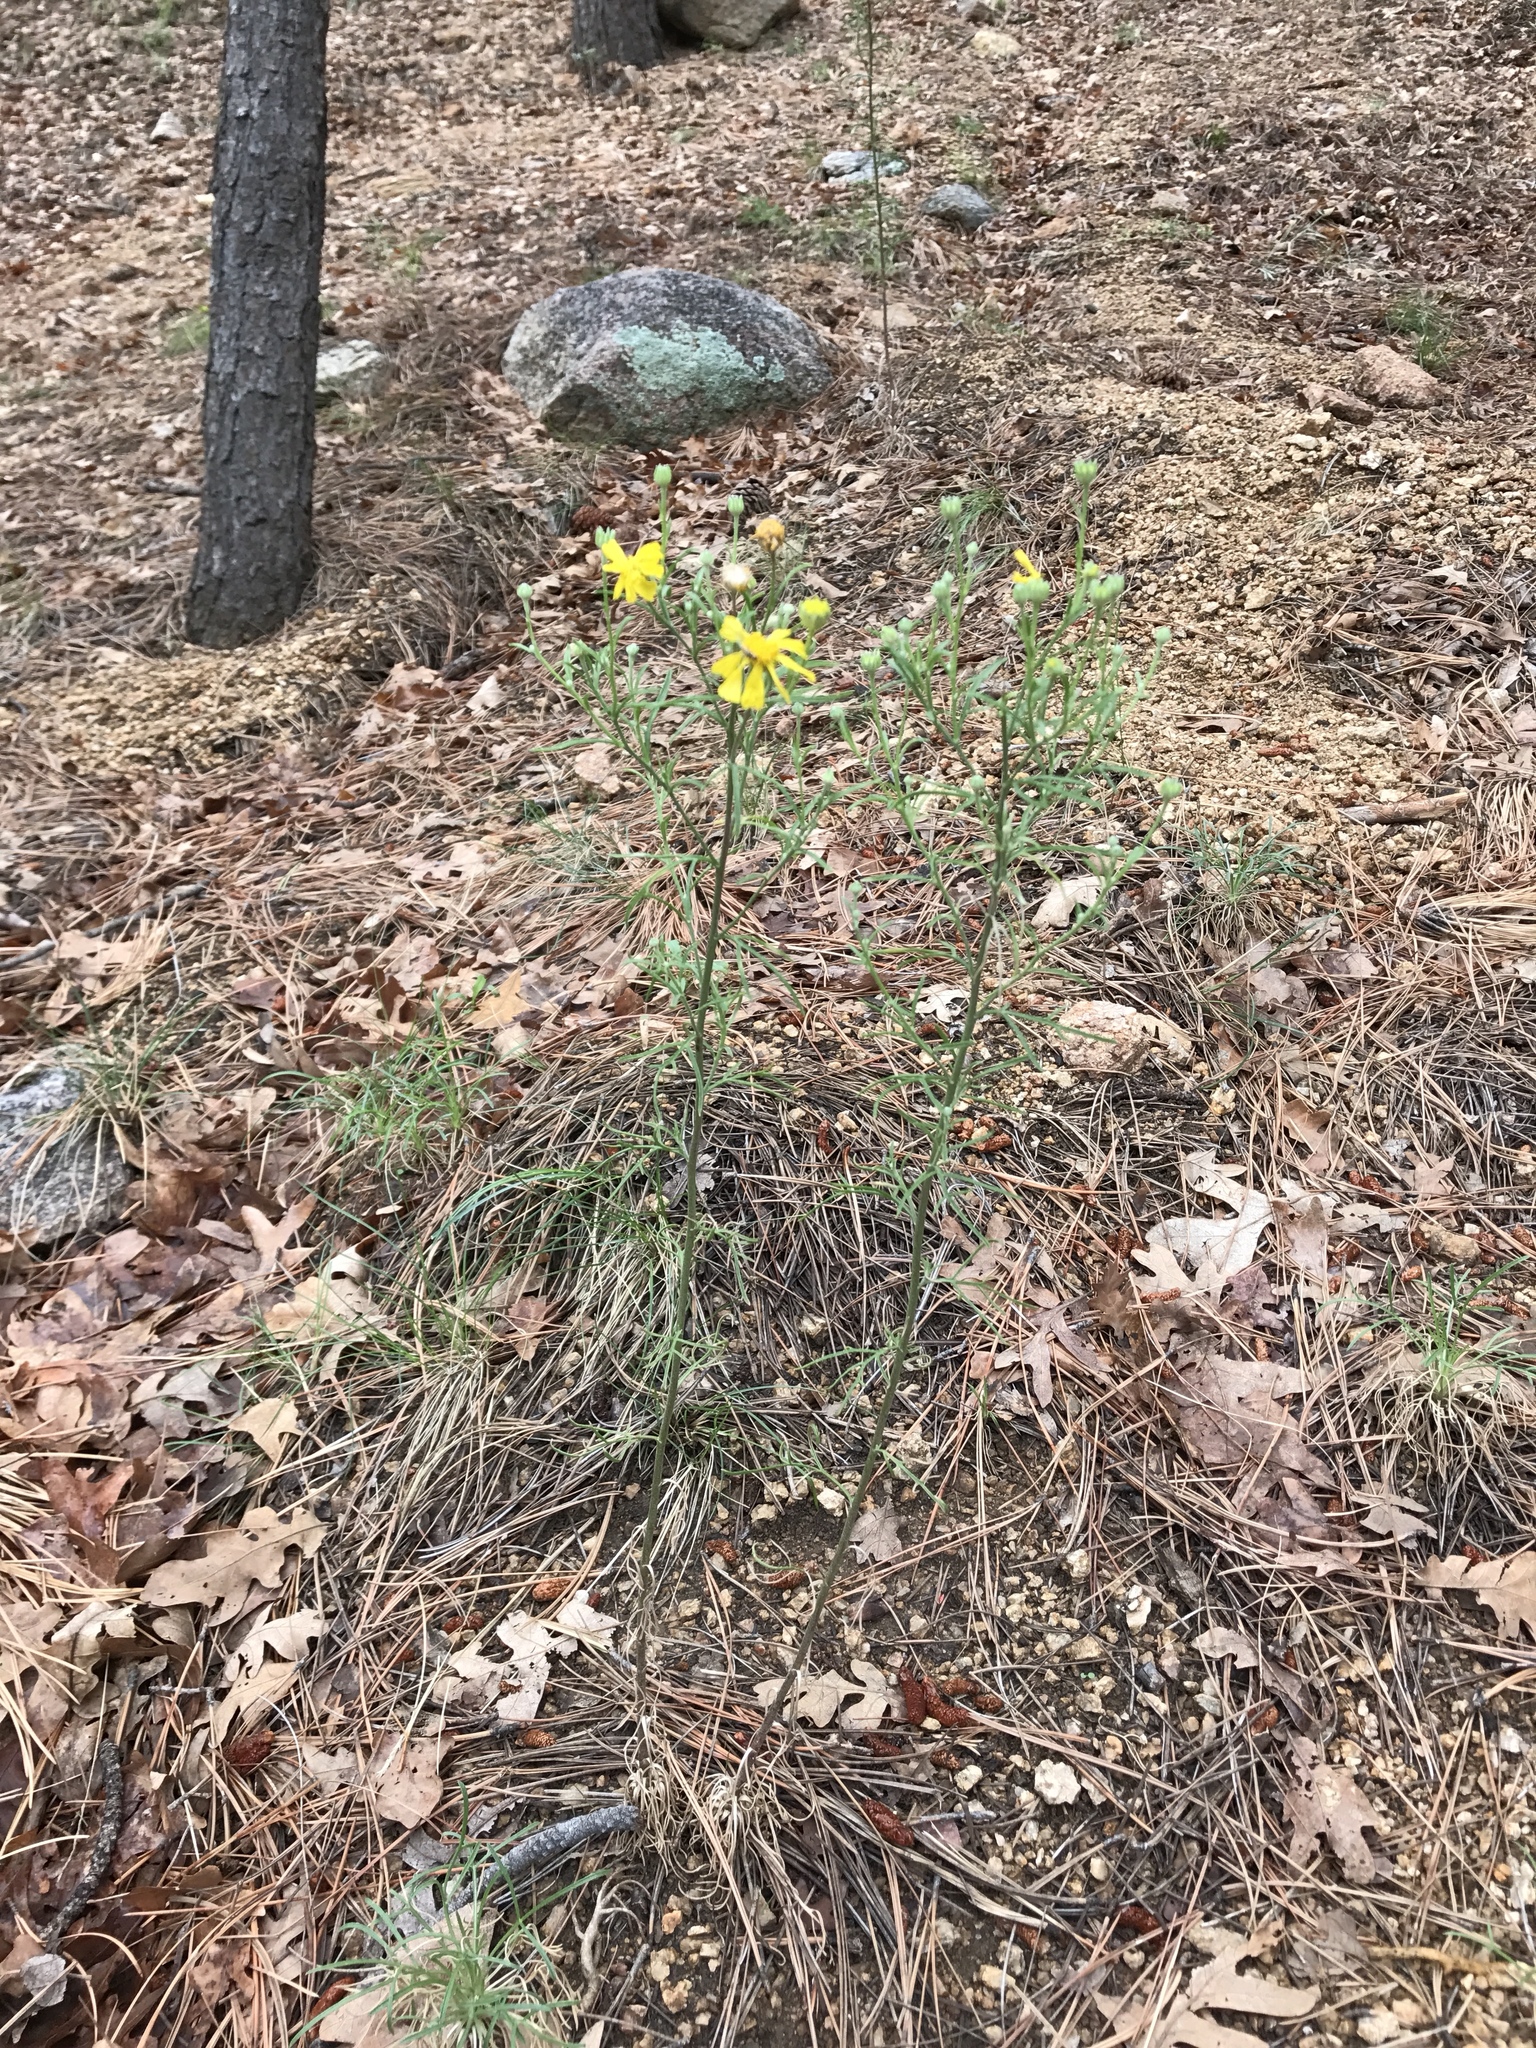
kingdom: Plantae
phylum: Tracheophyta
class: Magnoliopsida
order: Asterales
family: Asteraceae
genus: Hymenoxys
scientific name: Hymenoxys cooperi
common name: Cooper's bitterweed
